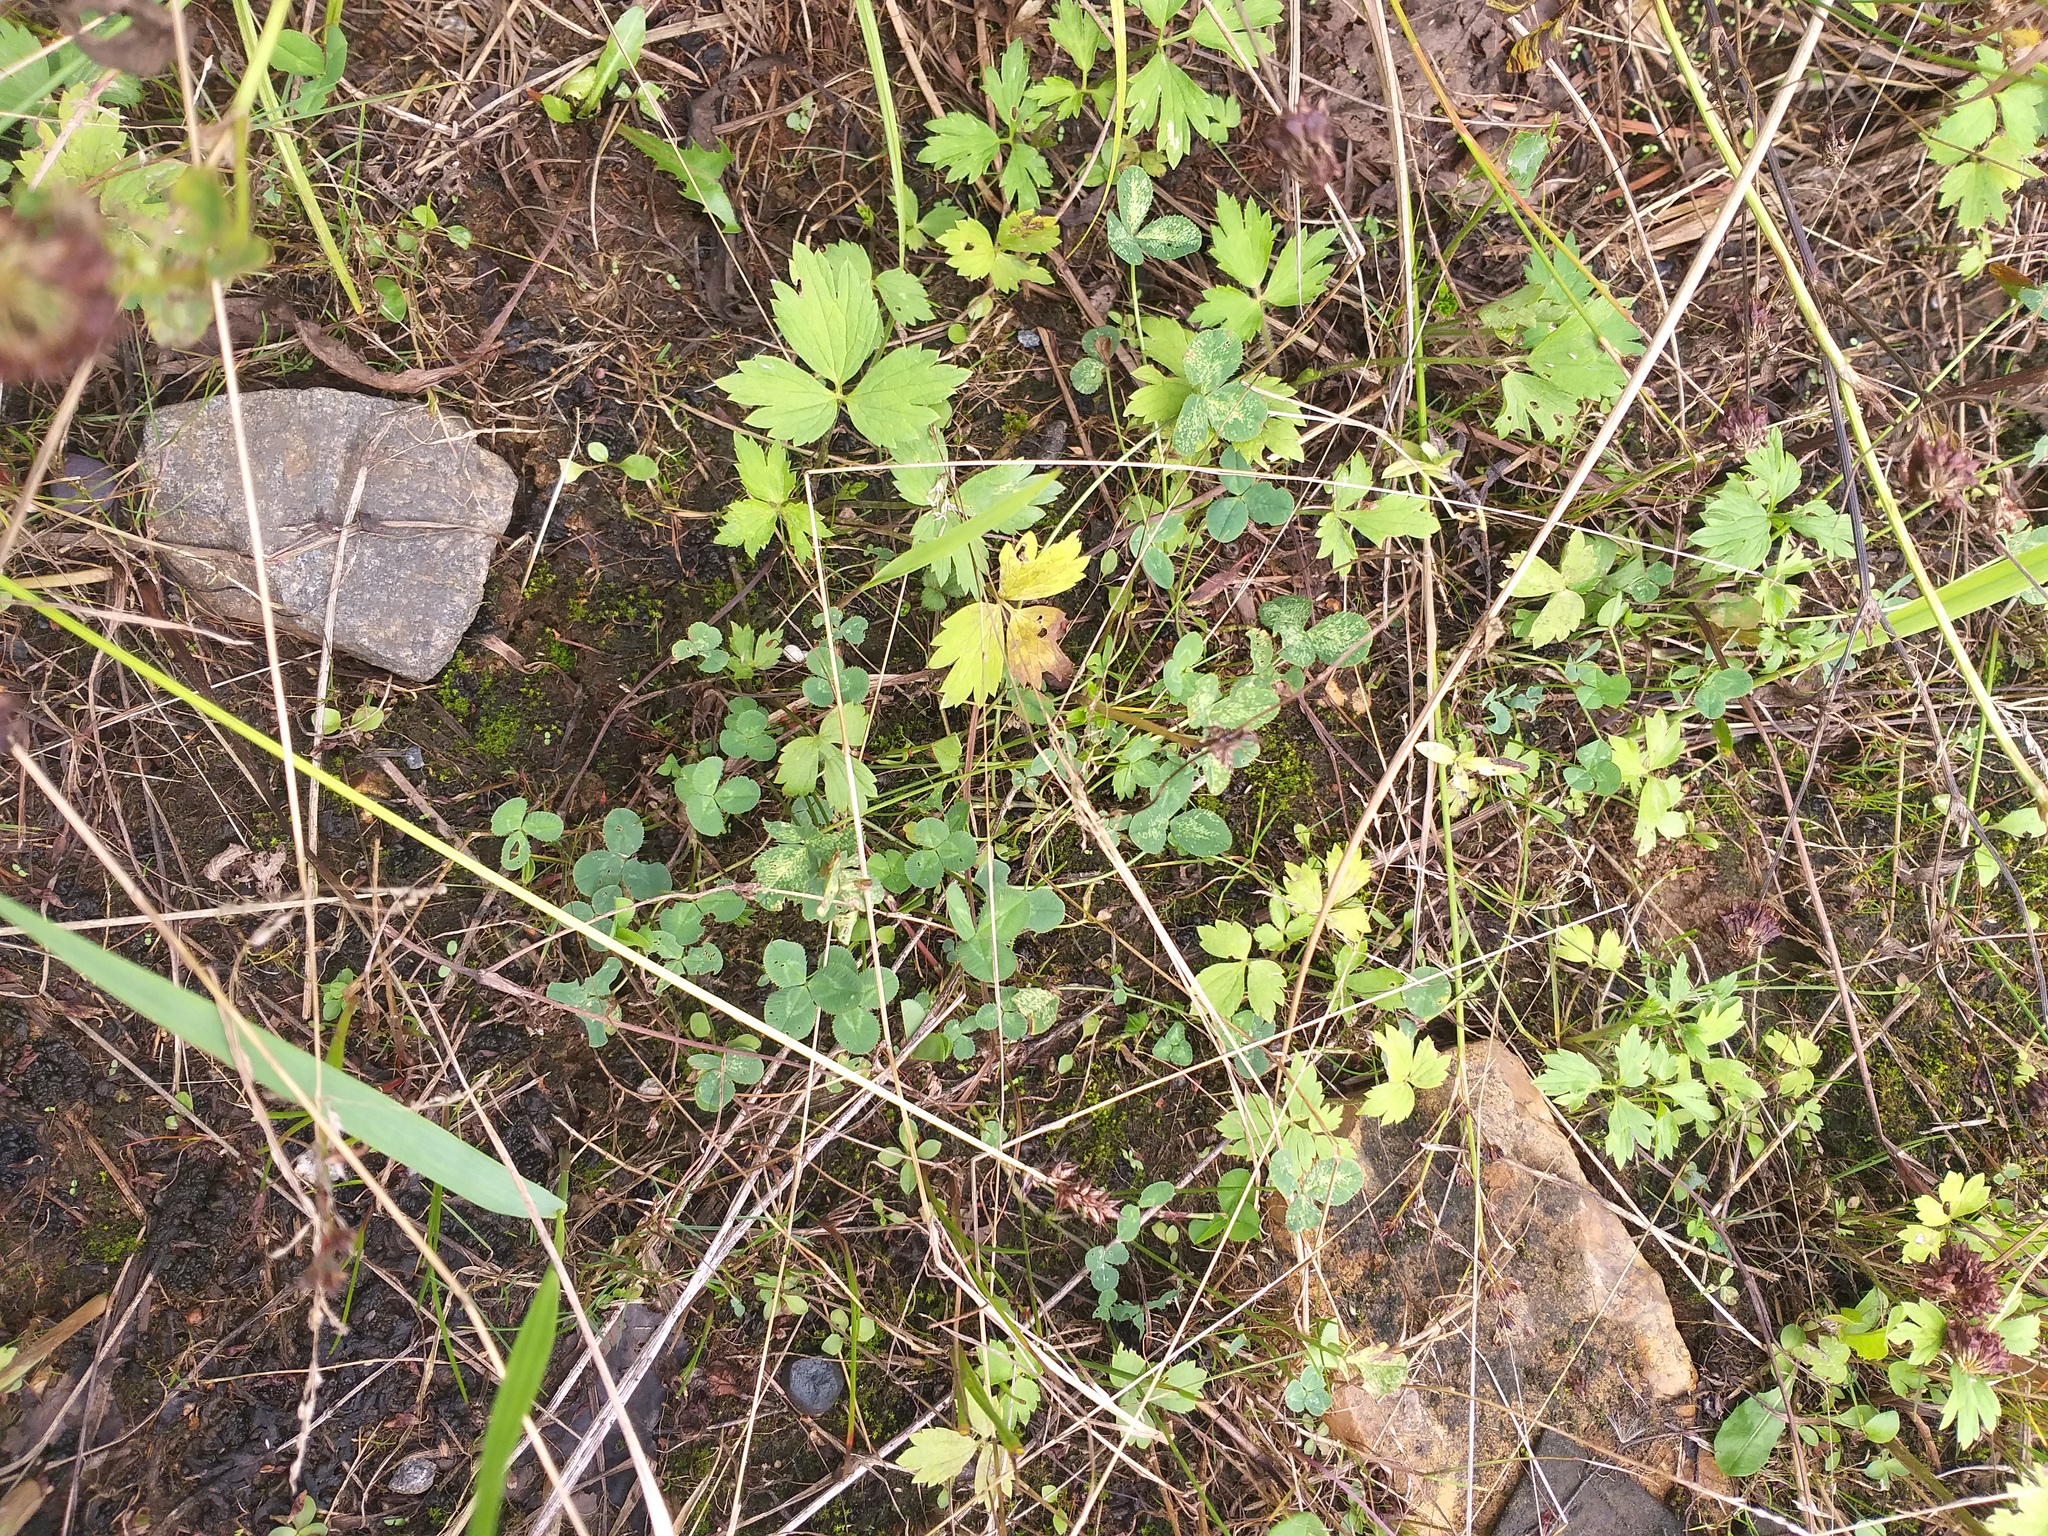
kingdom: Plantae
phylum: Tracheophyta
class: Magnoliopsida
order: Fabales
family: Fabaceae
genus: Trifolium
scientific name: Trifolium repens
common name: White clover
